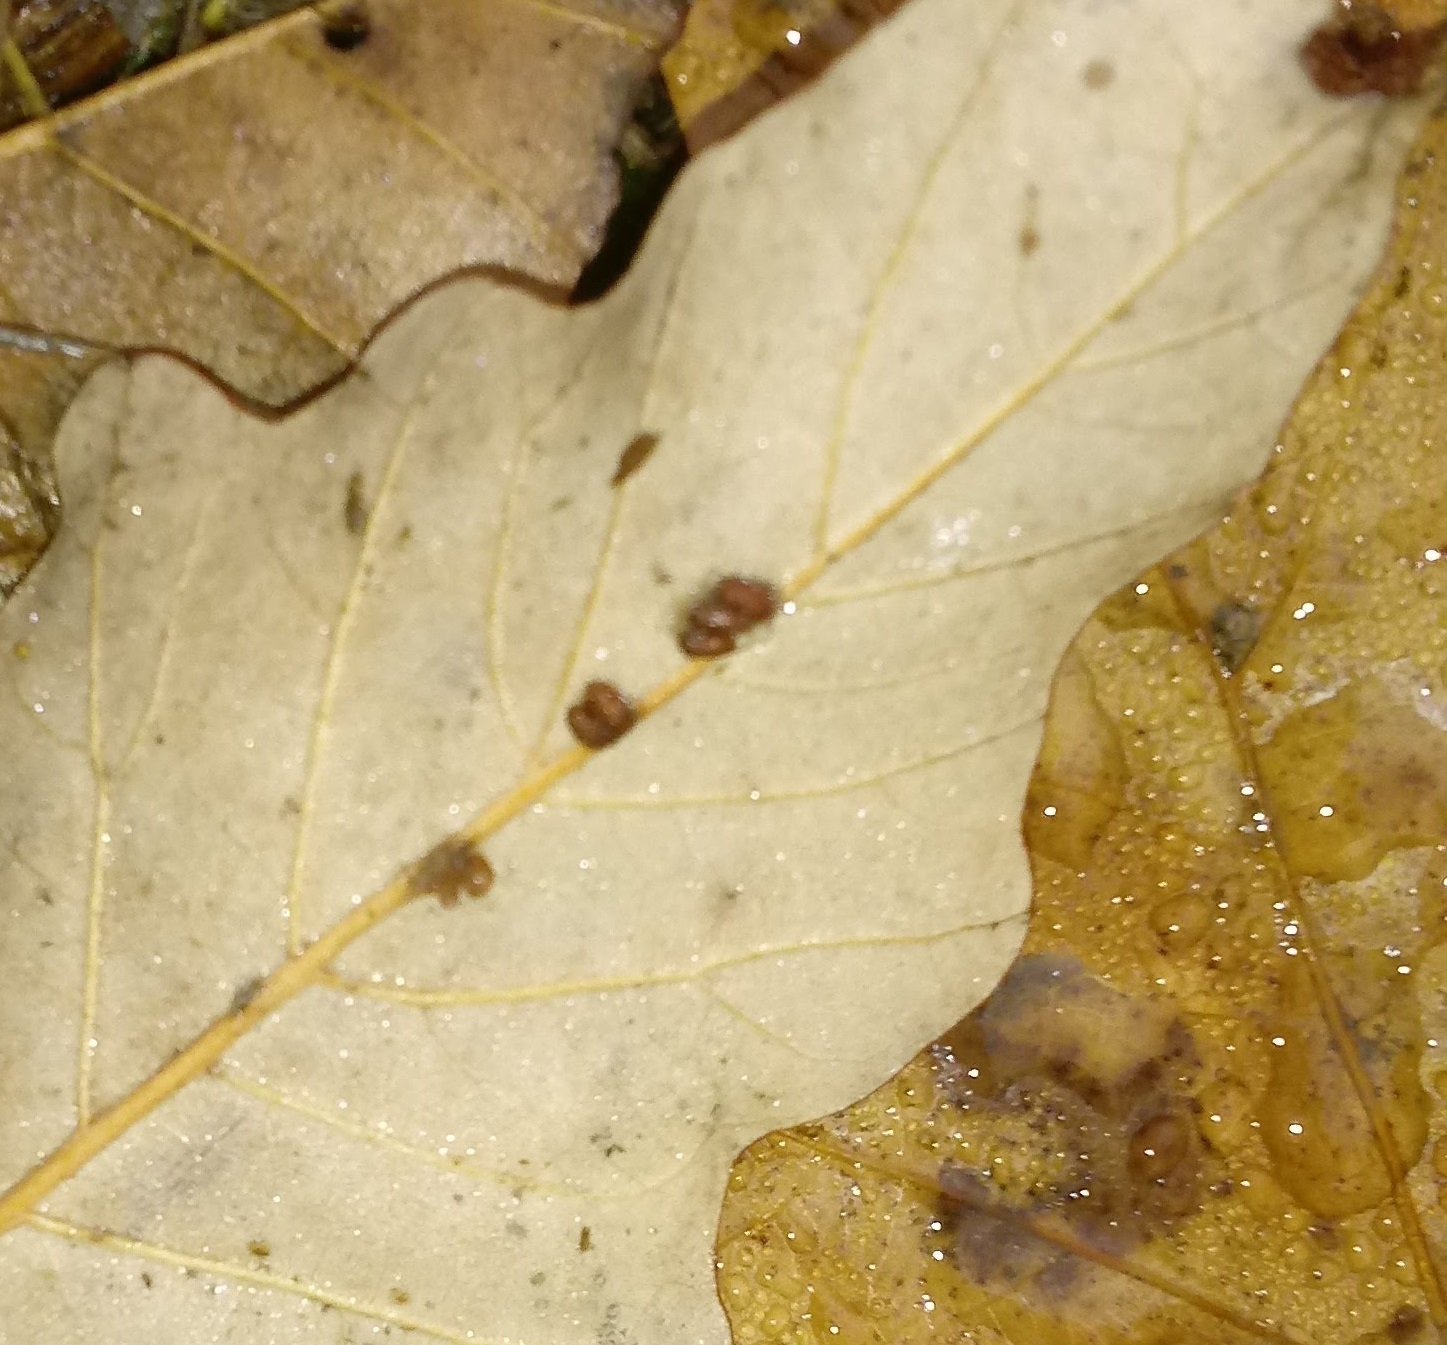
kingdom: Animalia
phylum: Arthropoda
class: Insecta
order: Hymenoptera
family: Cynipidae
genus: Andricus
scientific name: Andricus Druon ignotum
